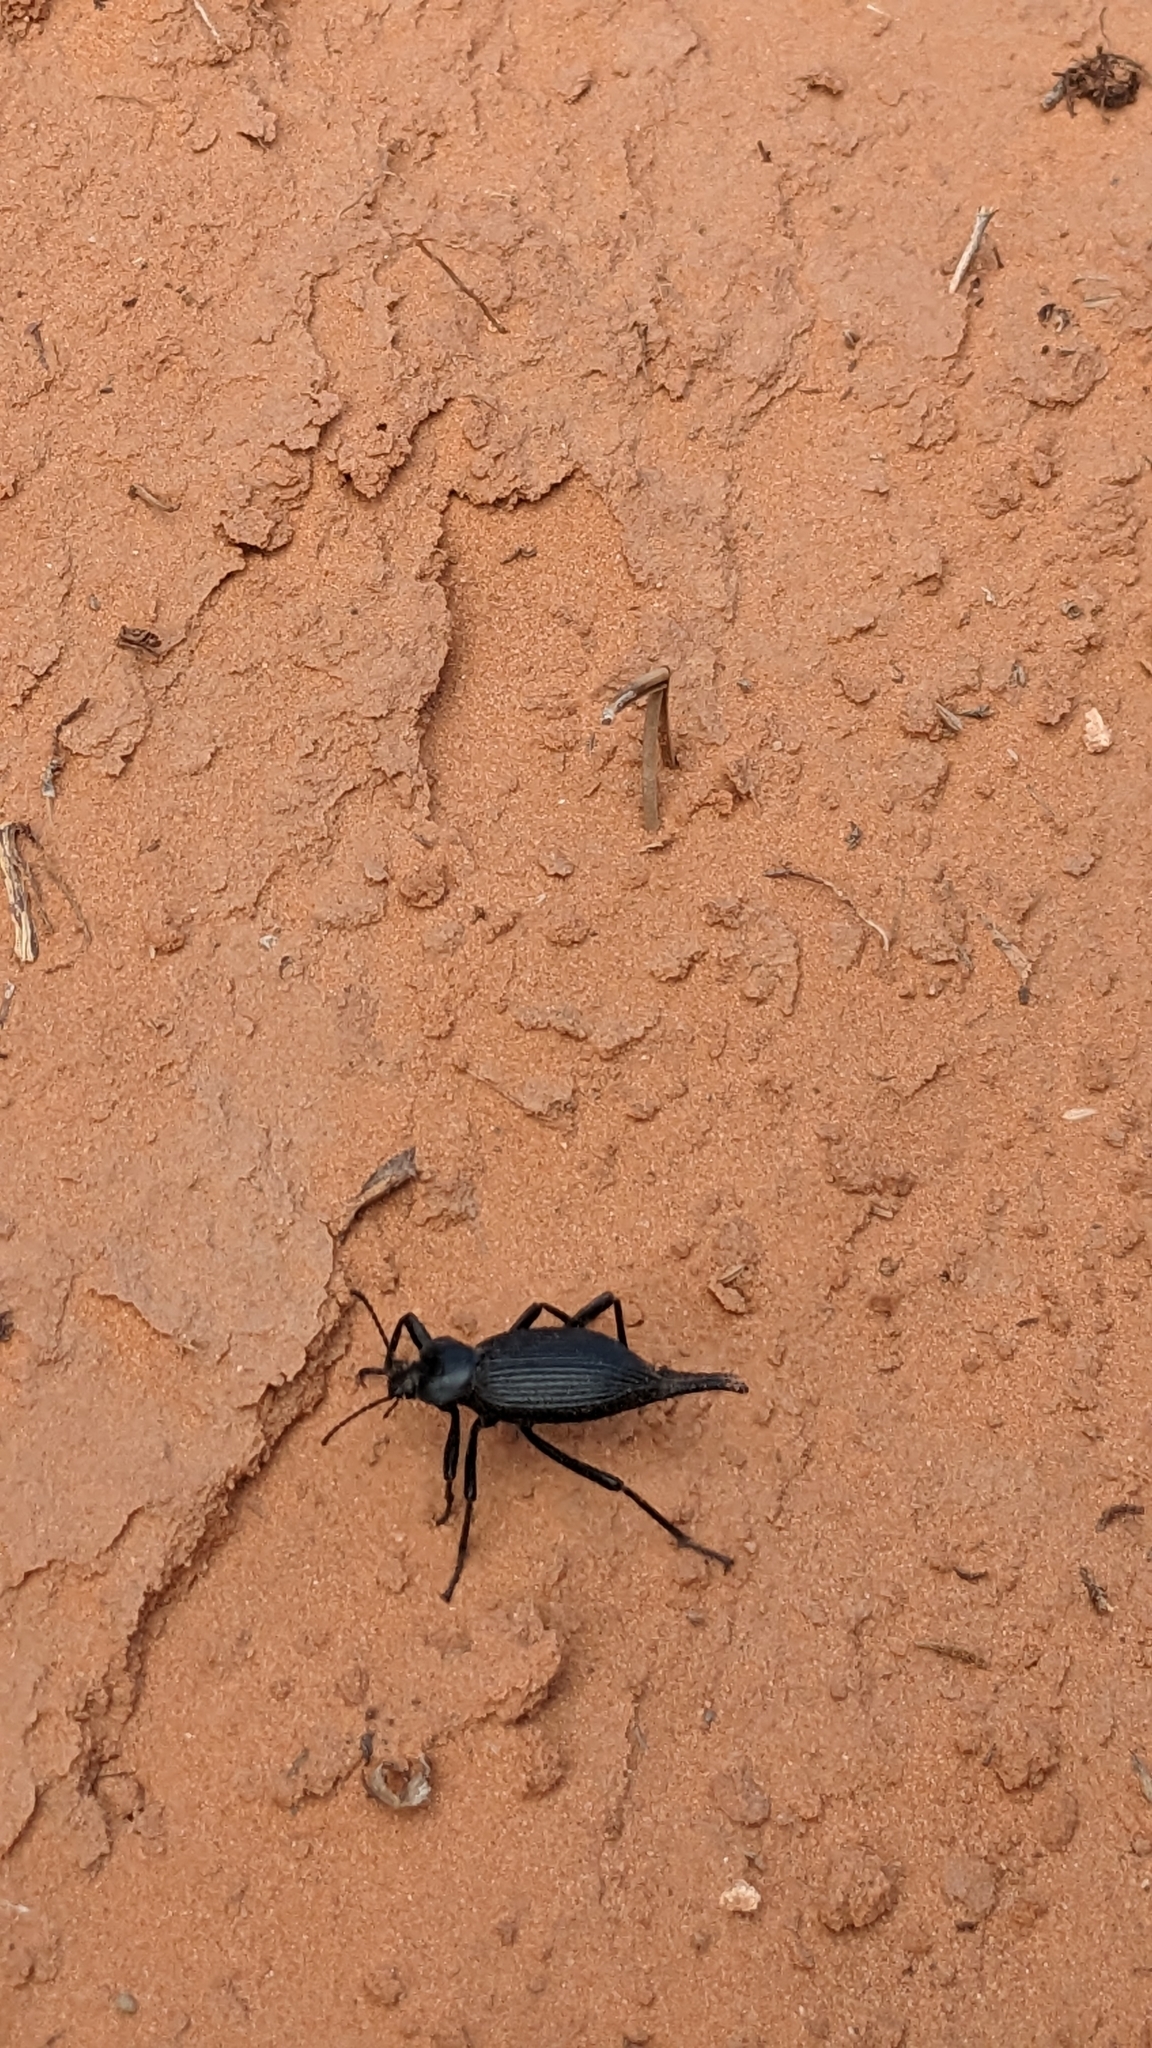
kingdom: Animalia
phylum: Arthropoda
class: Insecta
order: Coleoptera
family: Tenebrionidae
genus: Eleodes
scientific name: Eleodes caudifera
